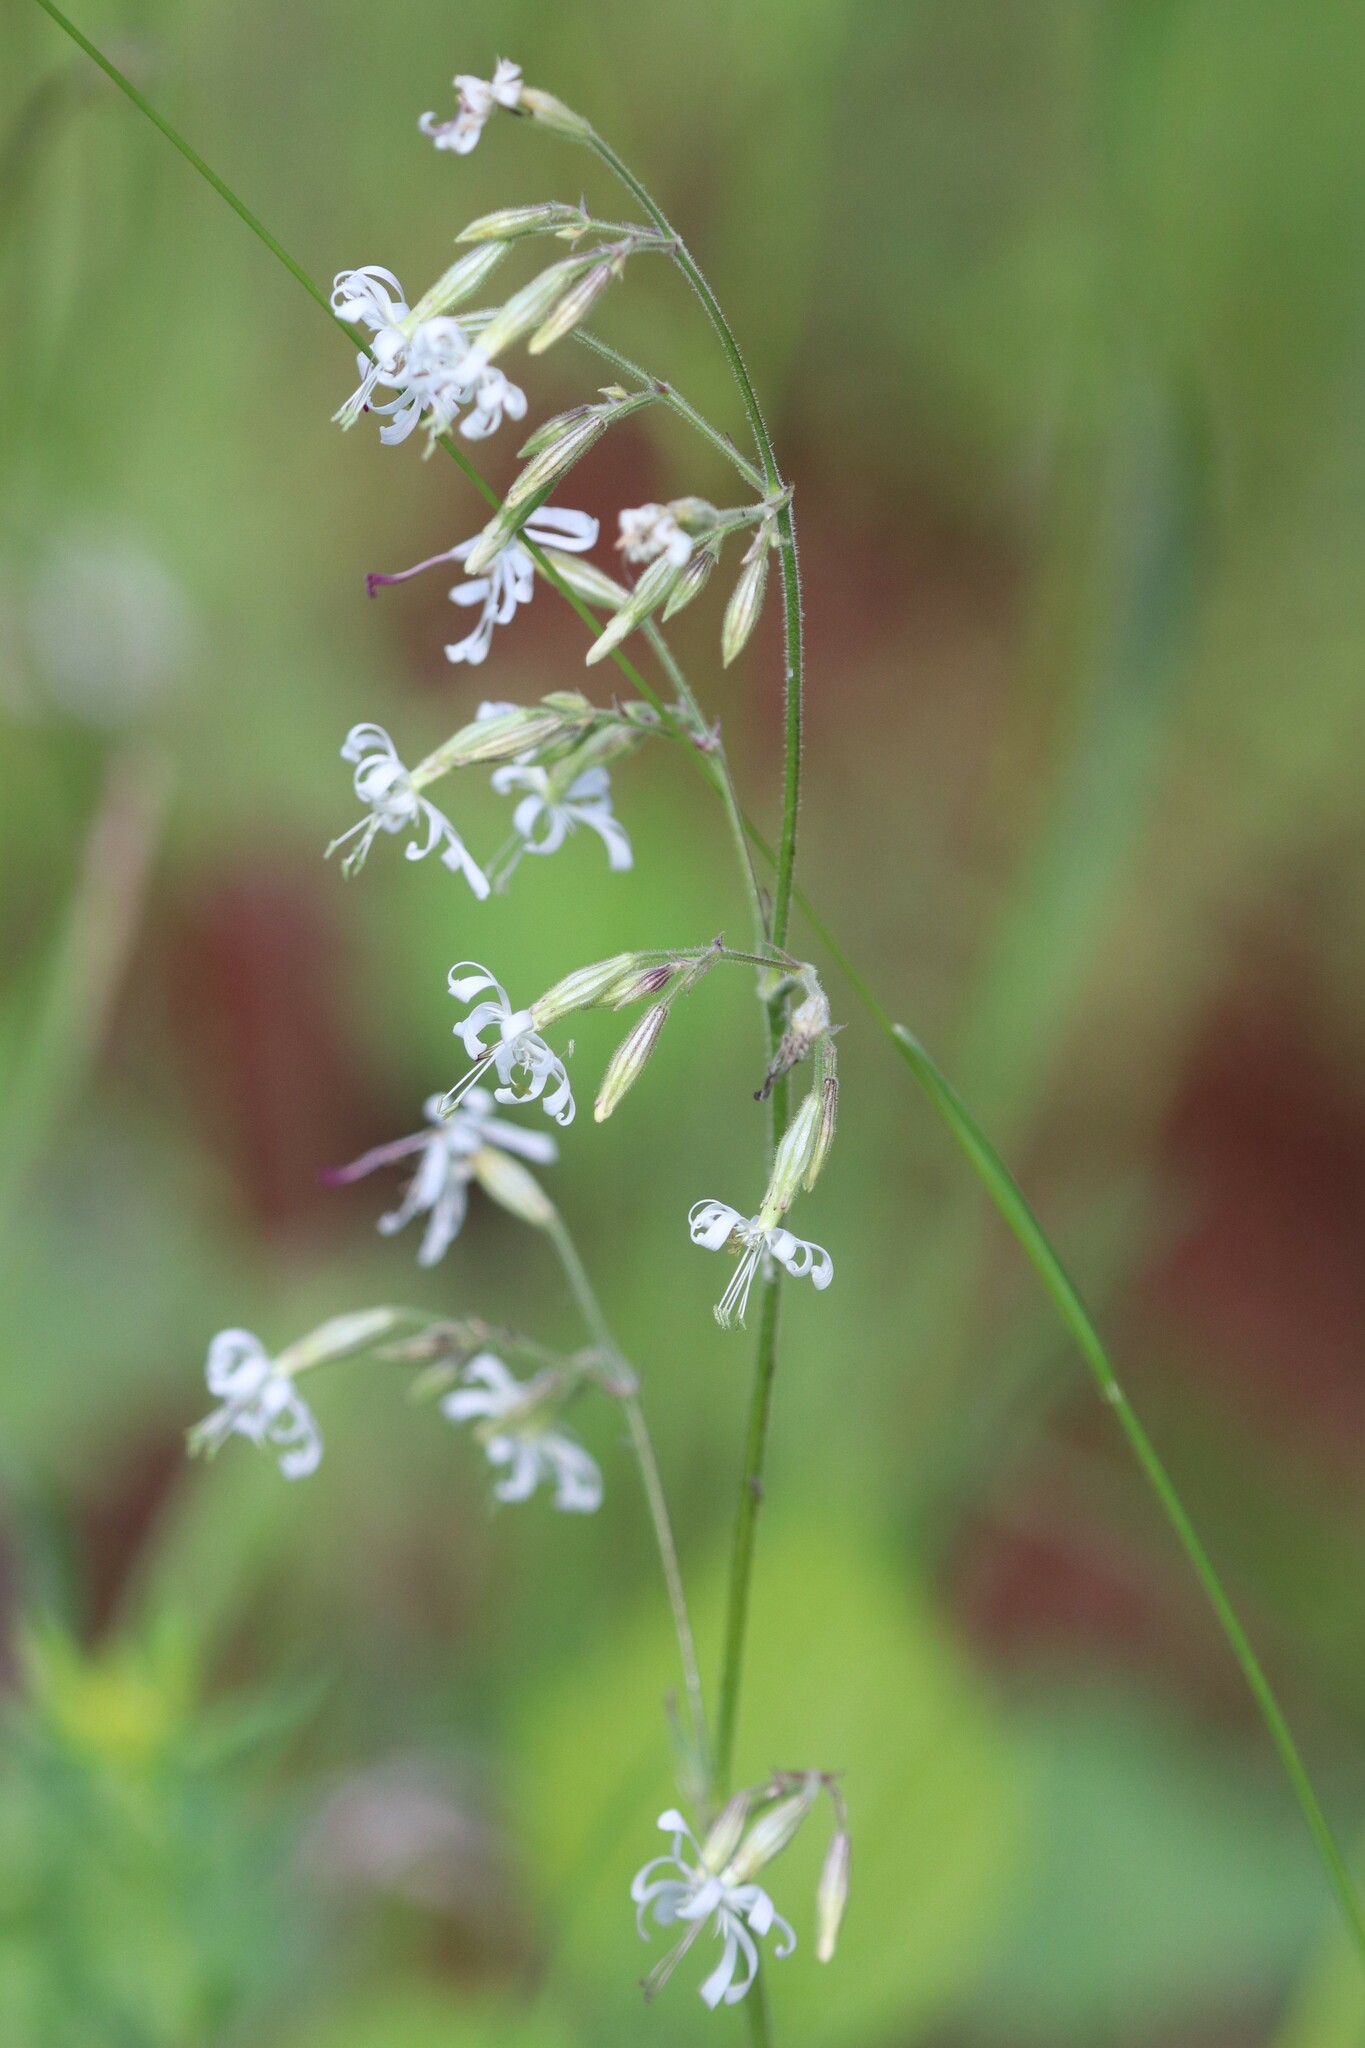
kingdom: Plantae
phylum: Tracheophyta
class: Magnoliopsida
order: Caryophyllales
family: Caryophyllaceae
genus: Silene
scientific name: Silene nutans
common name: Nottingham catchfly
